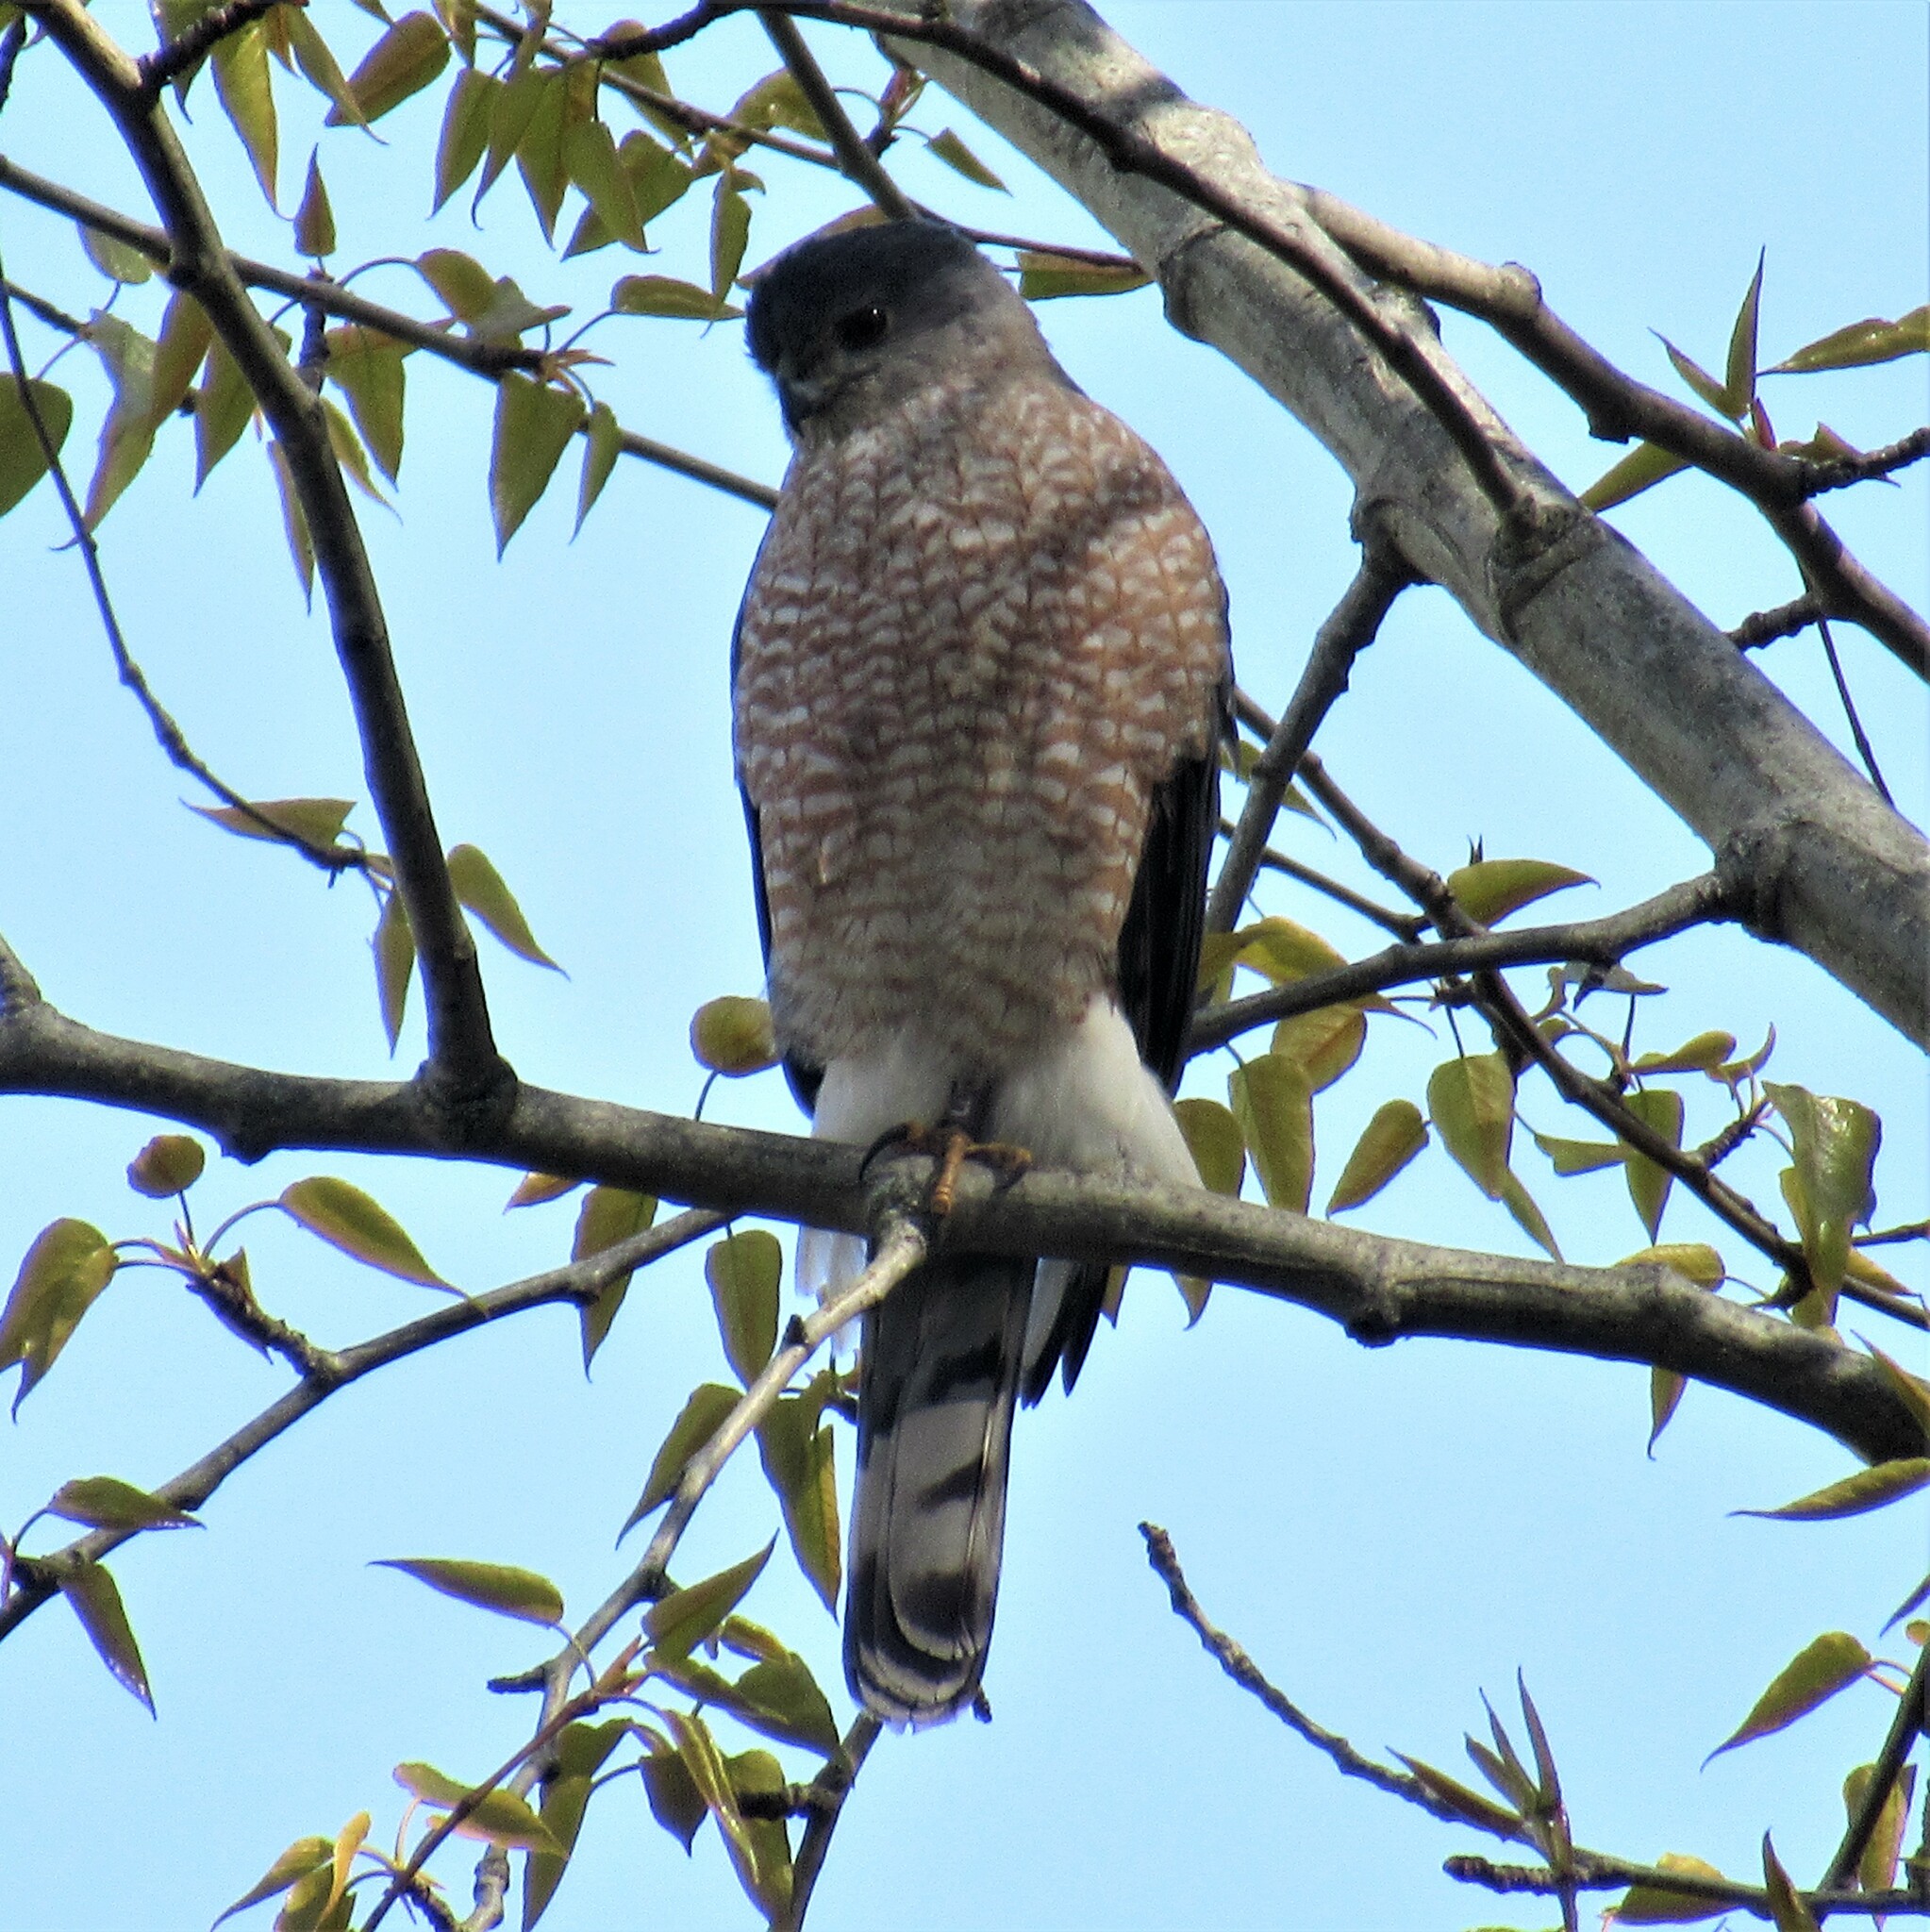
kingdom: Animalia
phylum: Chordata
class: Aves
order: Accipitriformes
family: Accipitridae
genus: Accipiter
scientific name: Accipiter cooperii
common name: Cooper's hawk
